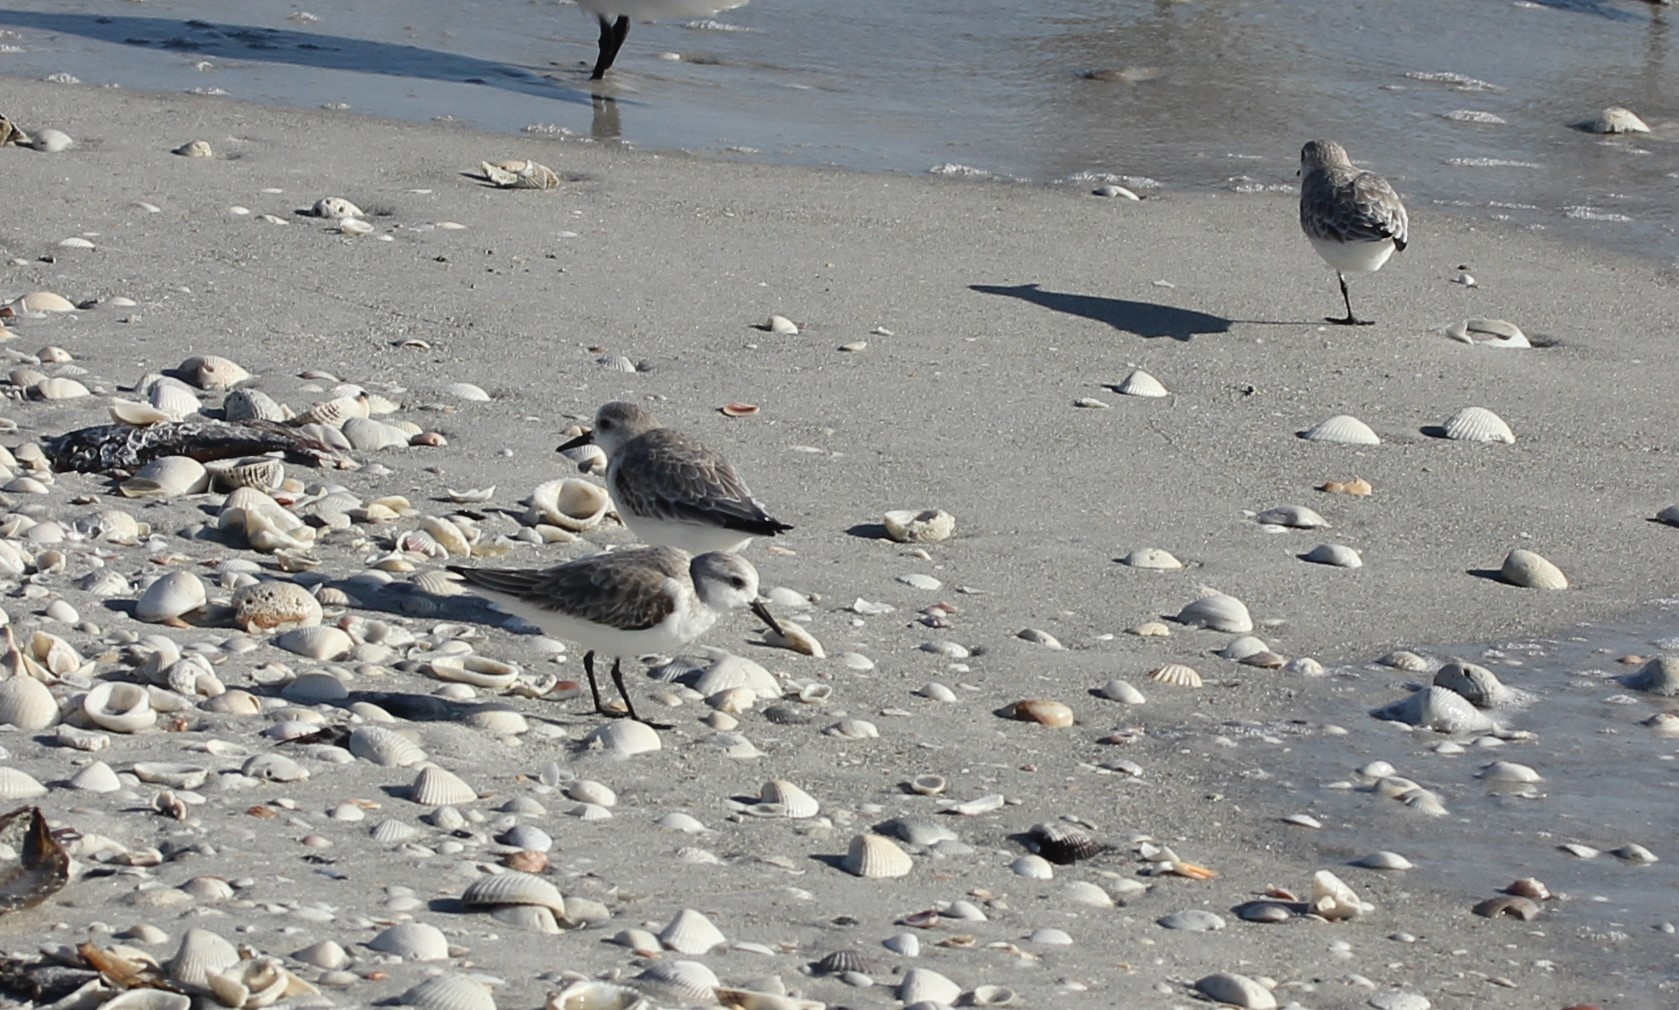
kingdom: Animalia
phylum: Chordata
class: Aves
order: Charadriiformes
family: Scolopacidae
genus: Calidris
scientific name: Calidris alba
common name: Sanderling
